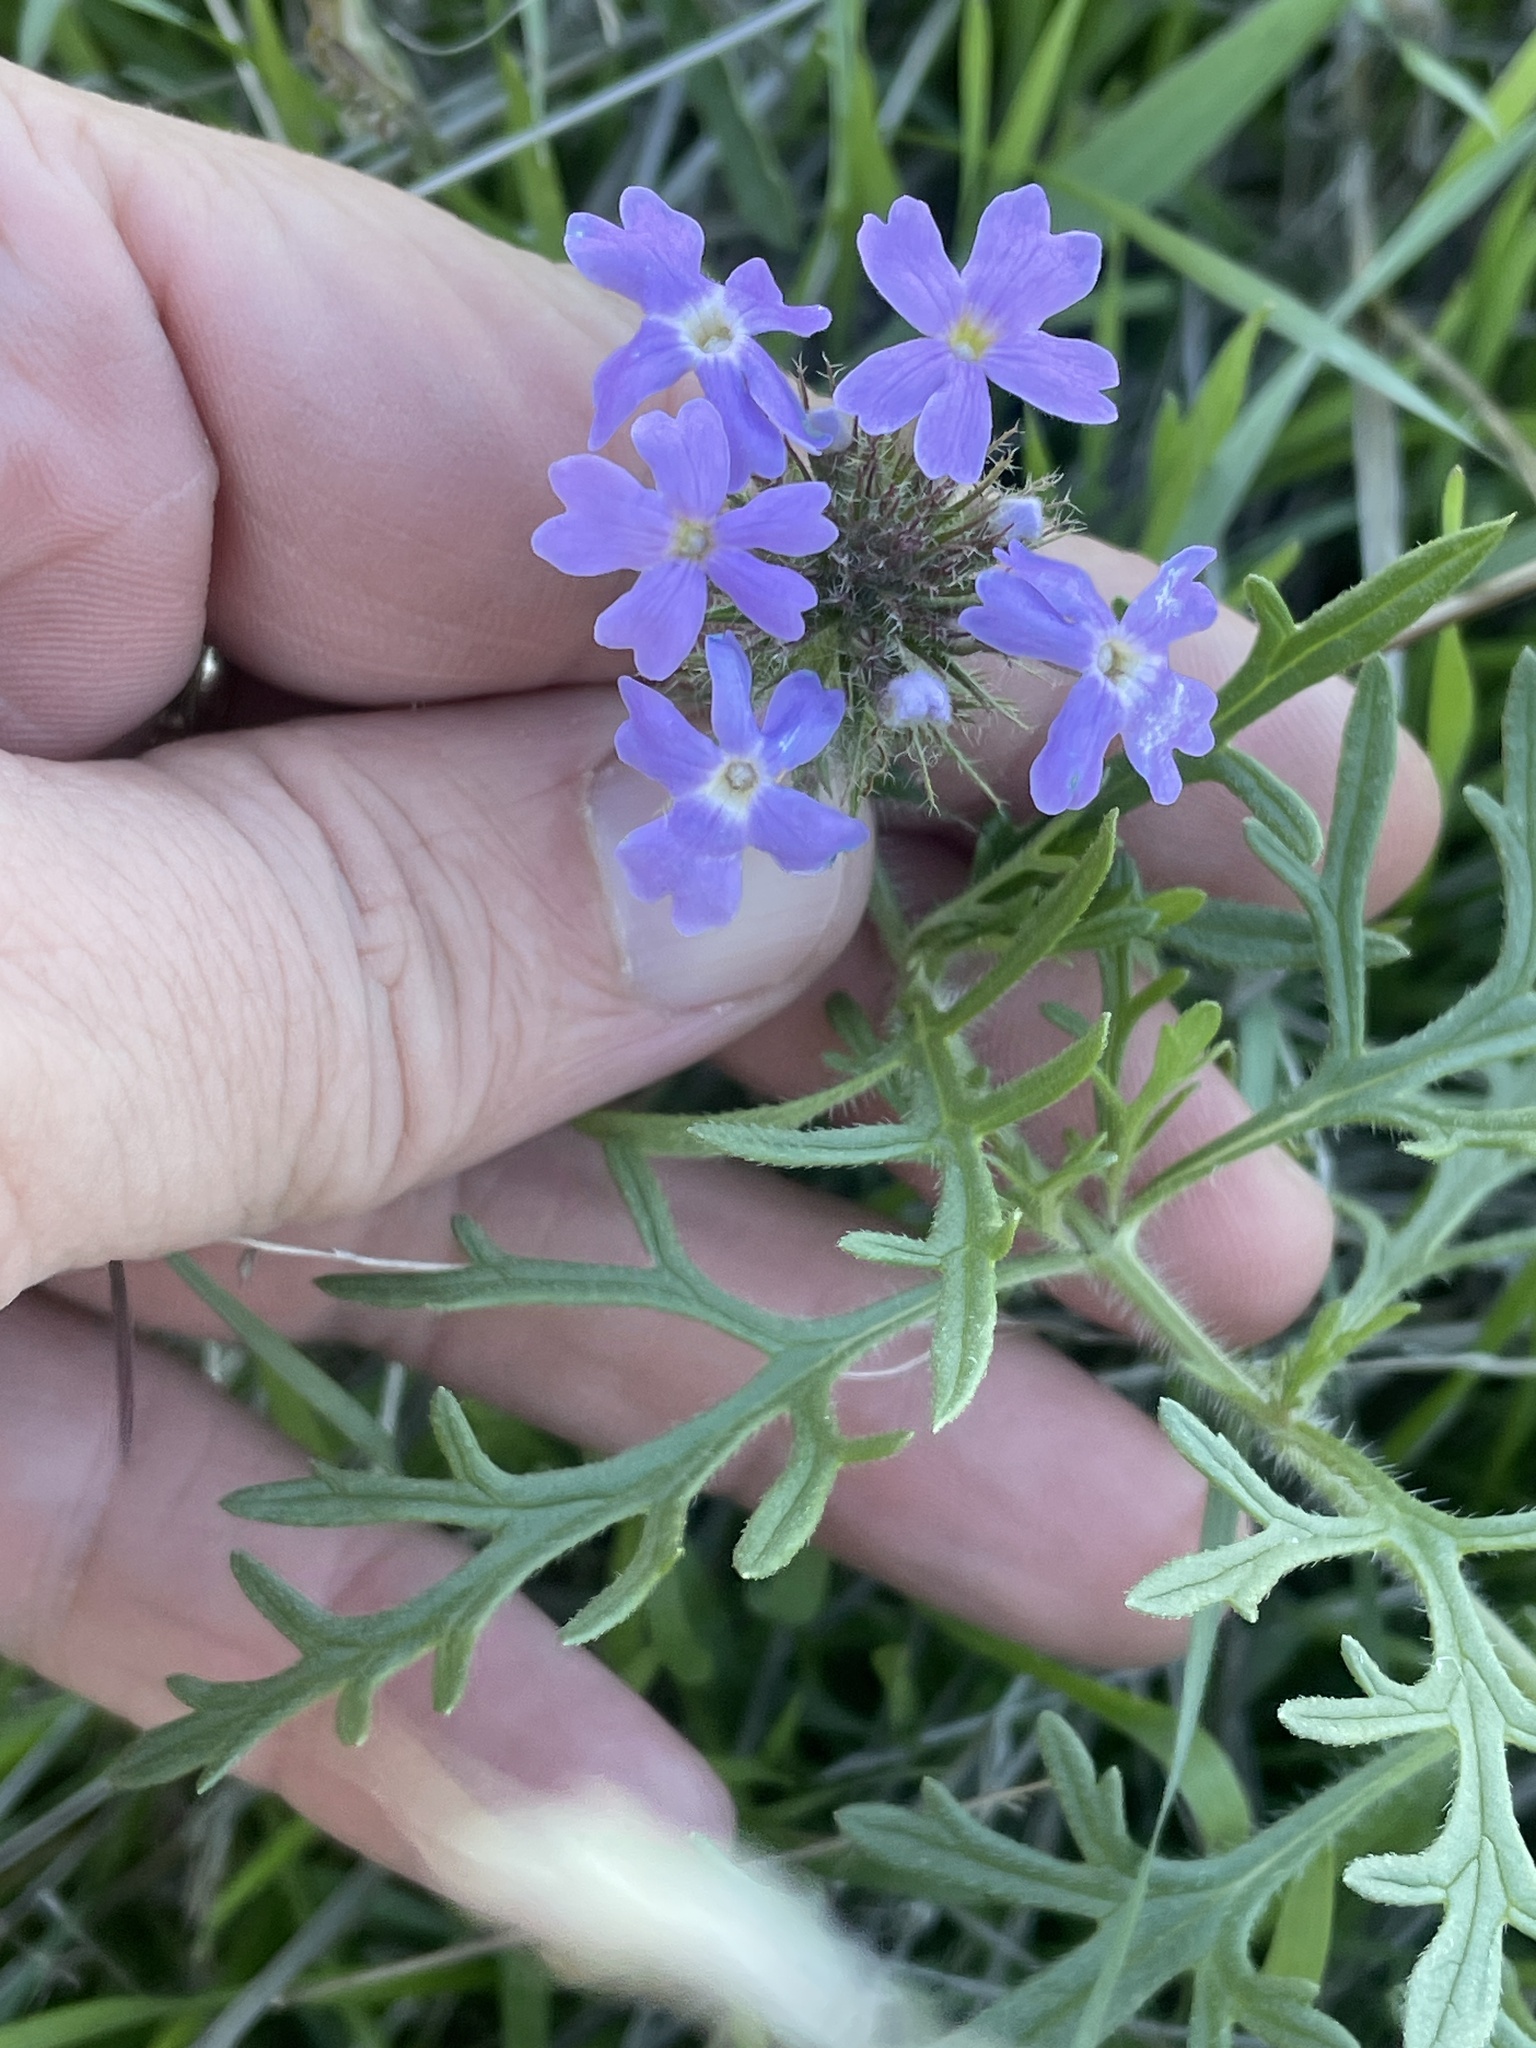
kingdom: Plantae
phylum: Tracheophyta
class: Magnoliopsida
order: Lamiales
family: Verbenaceae
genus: Verbena
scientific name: Verbena bipinnatifida
